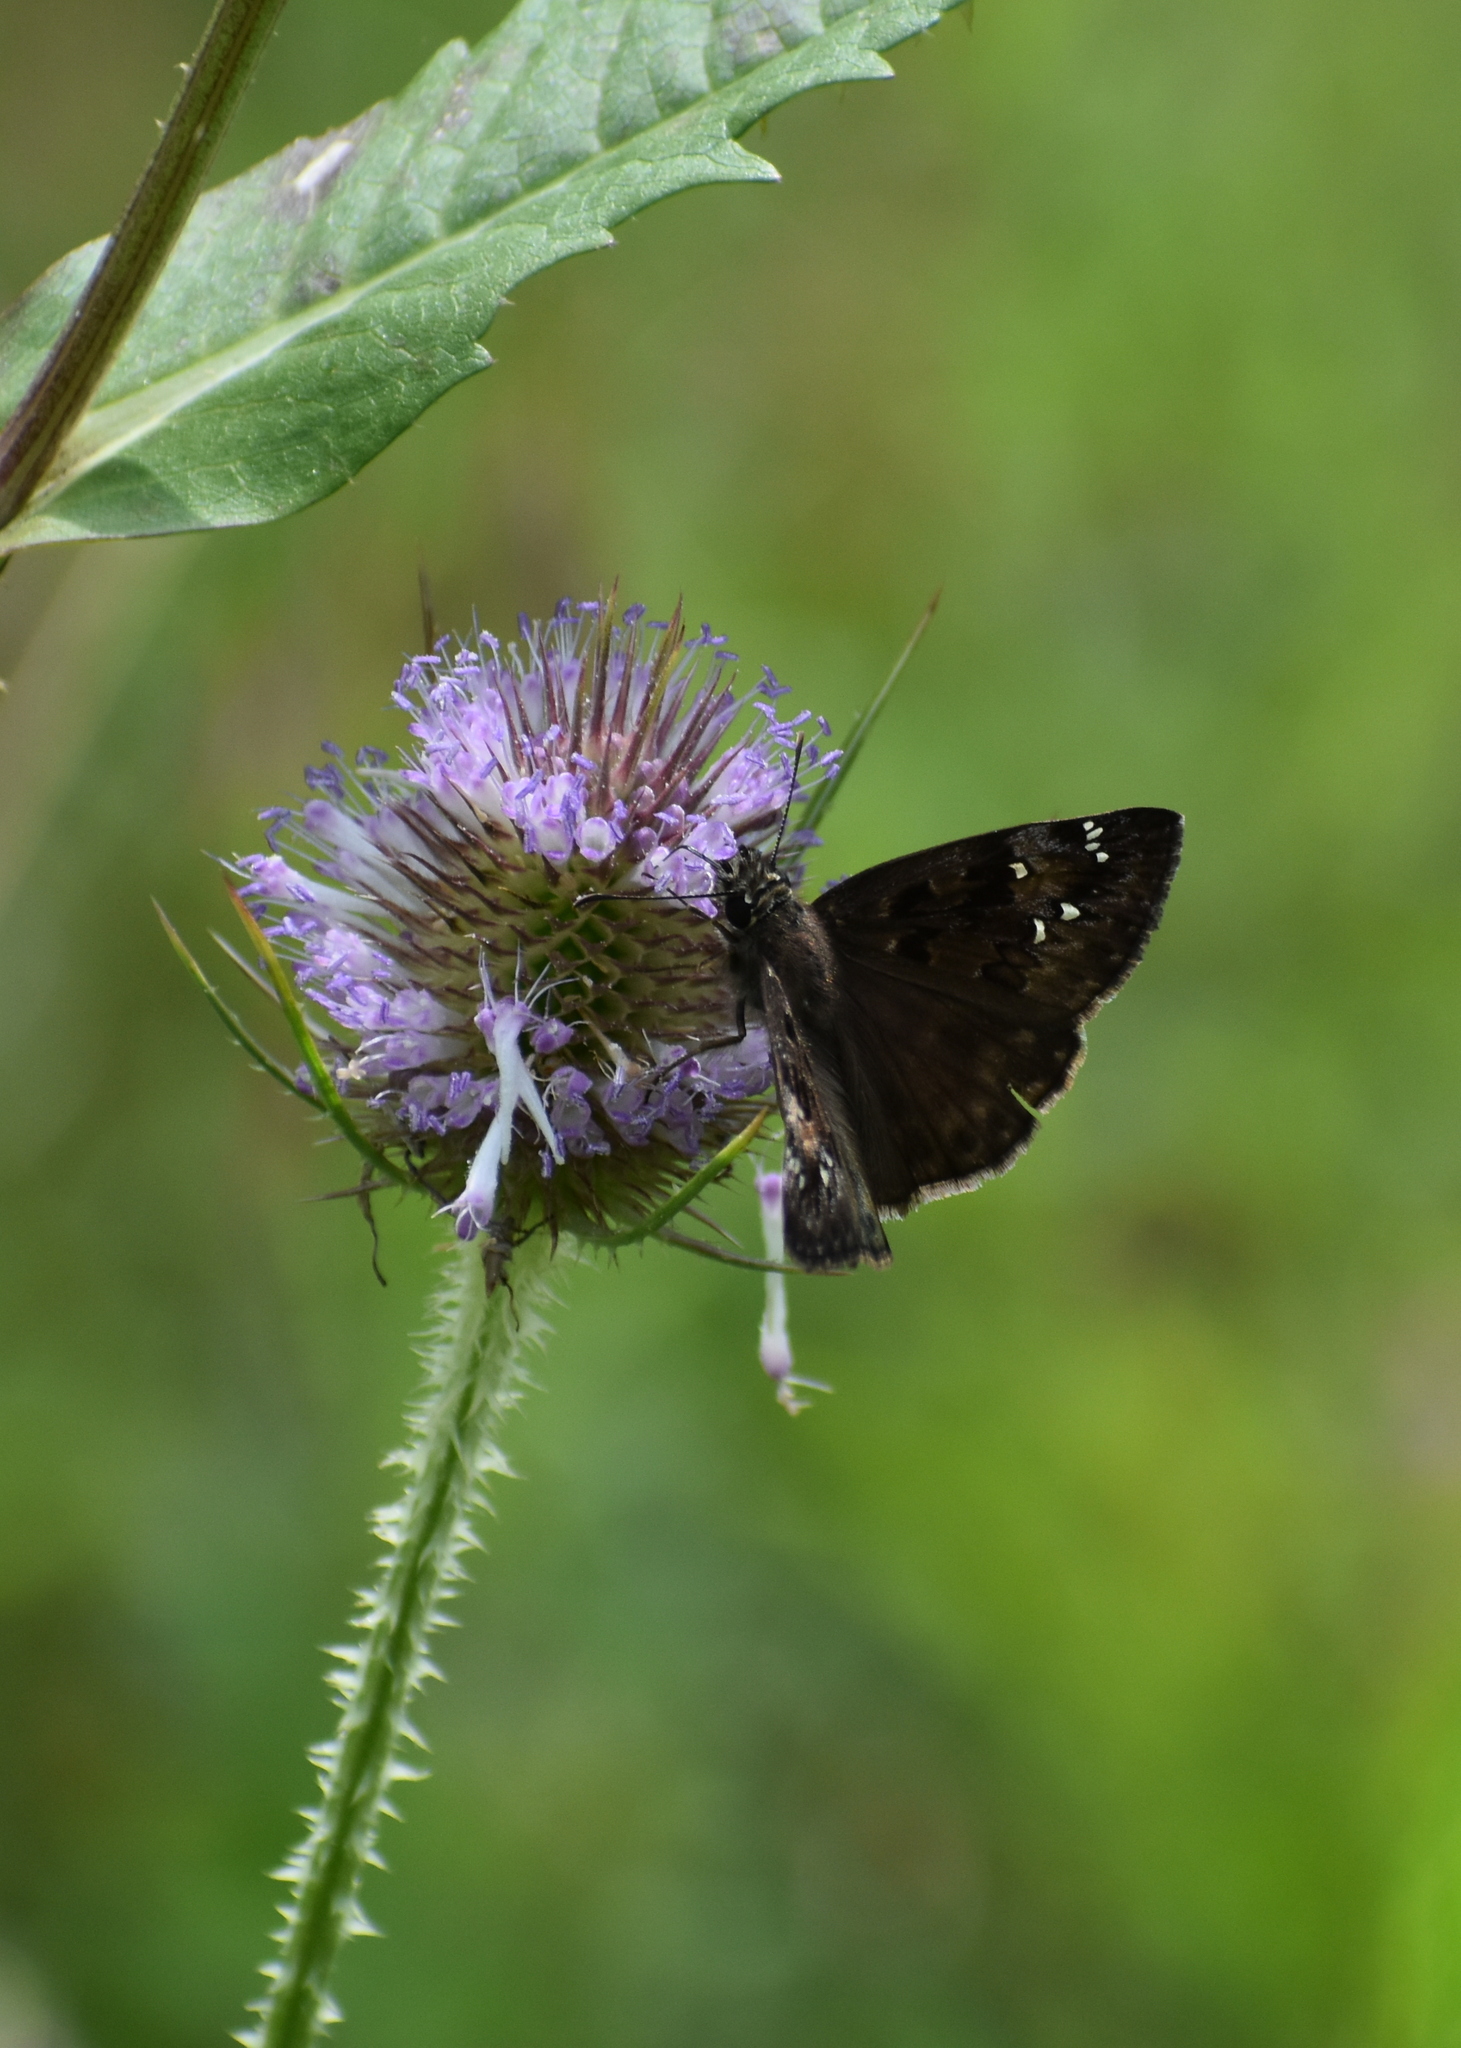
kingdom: Animalia
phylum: Arthropoda
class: Insecta
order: Lepidoptera
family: Hesperiidae
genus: Erynnis
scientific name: Erynnis horatius
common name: Horace's duskywing
